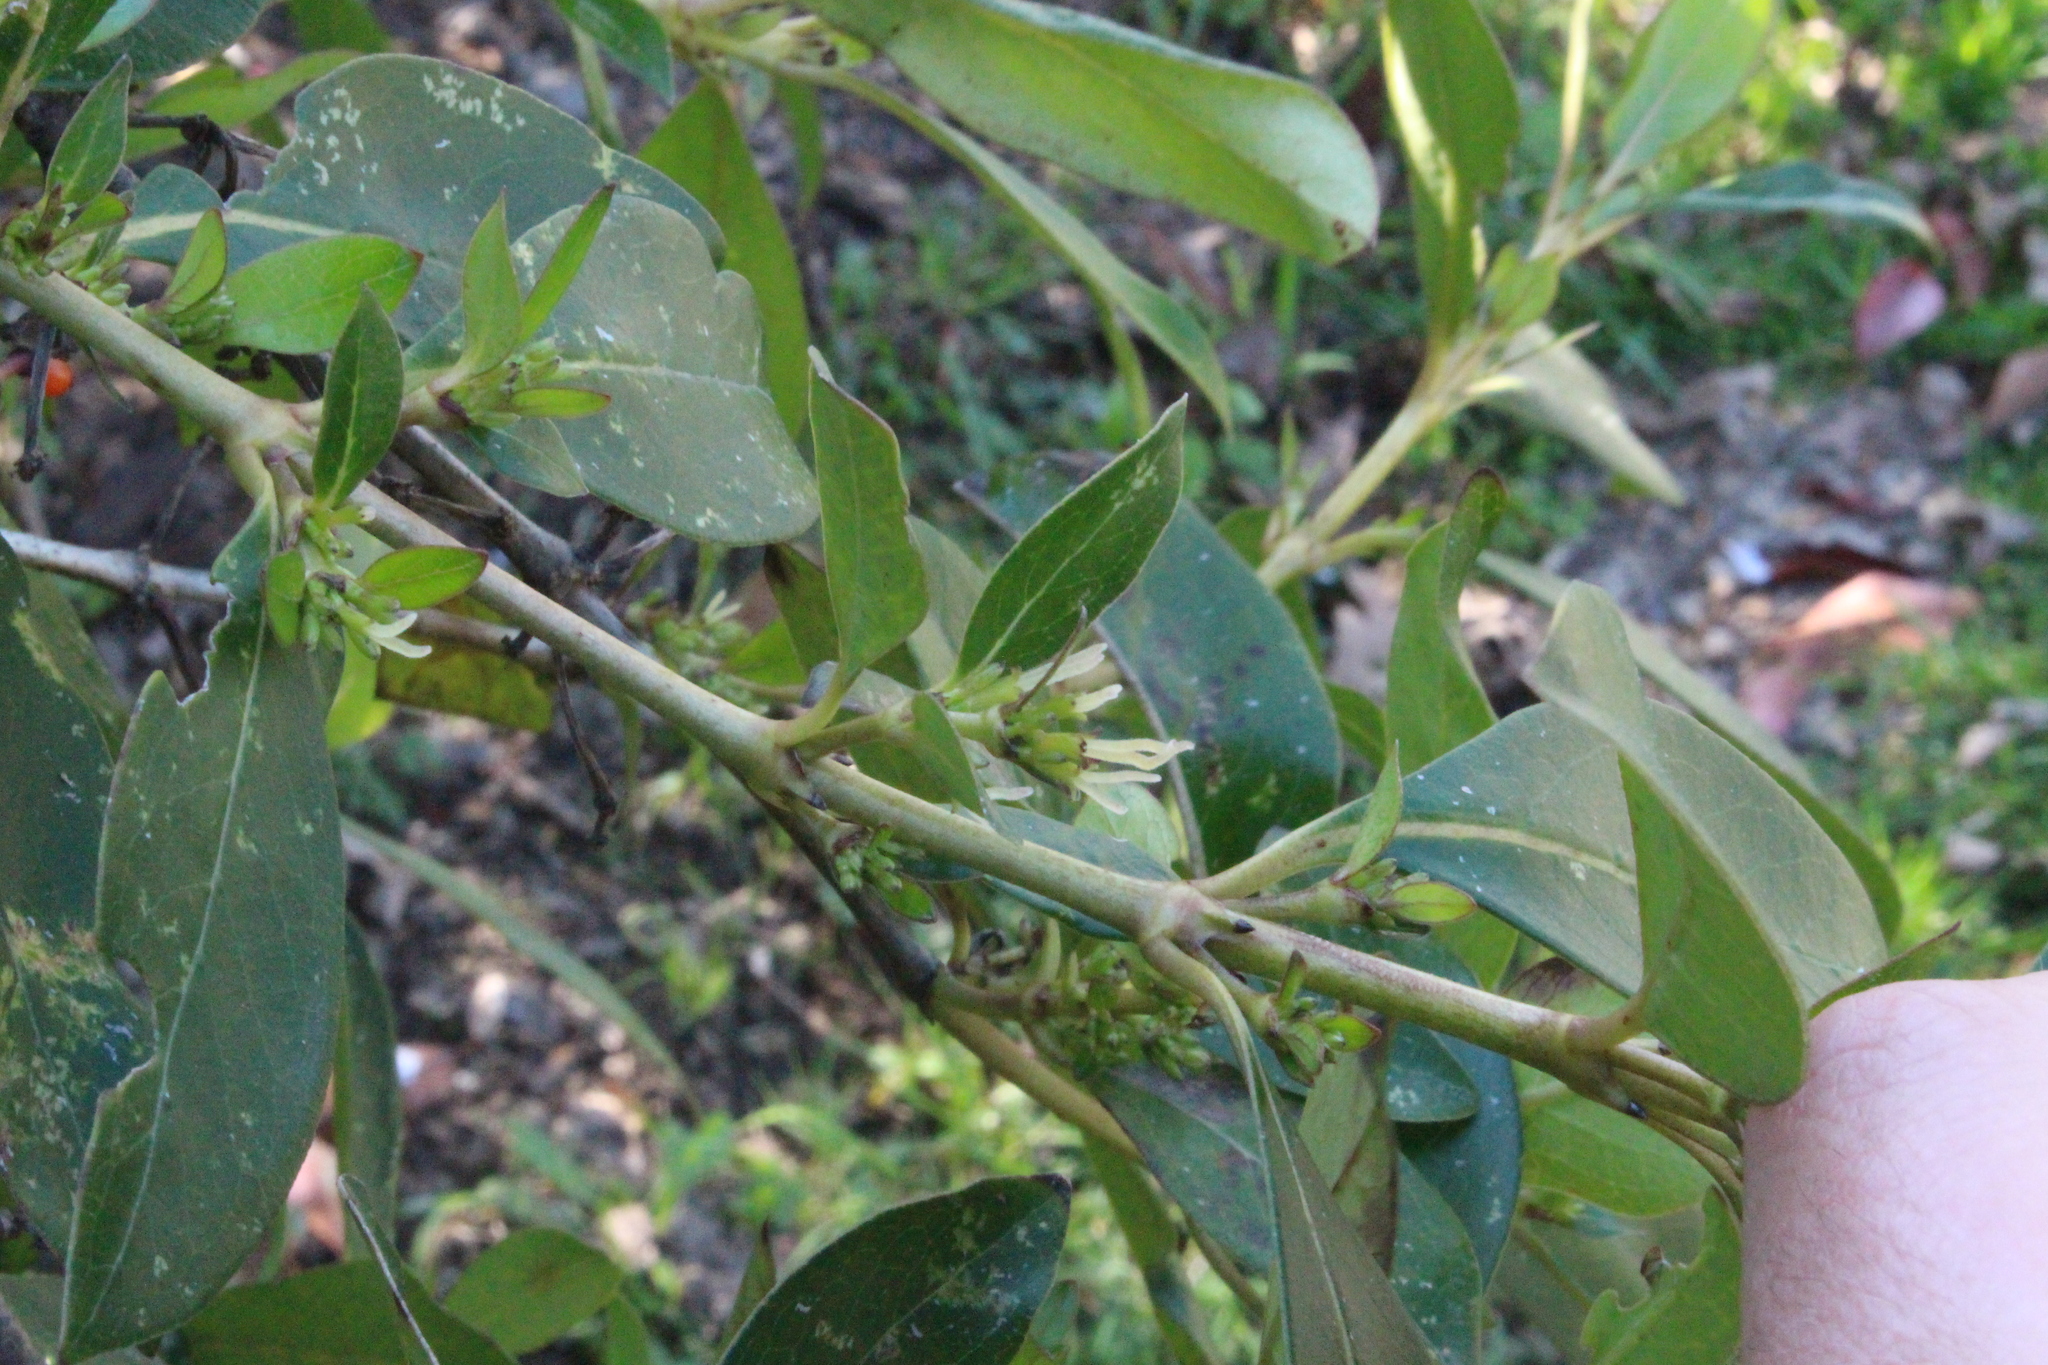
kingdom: Plantae
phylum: Tracheophyta
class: Magnoliopsida
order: Gentianales
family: Rubiaceae
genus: Coprosma
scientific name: Coprosma robusta
